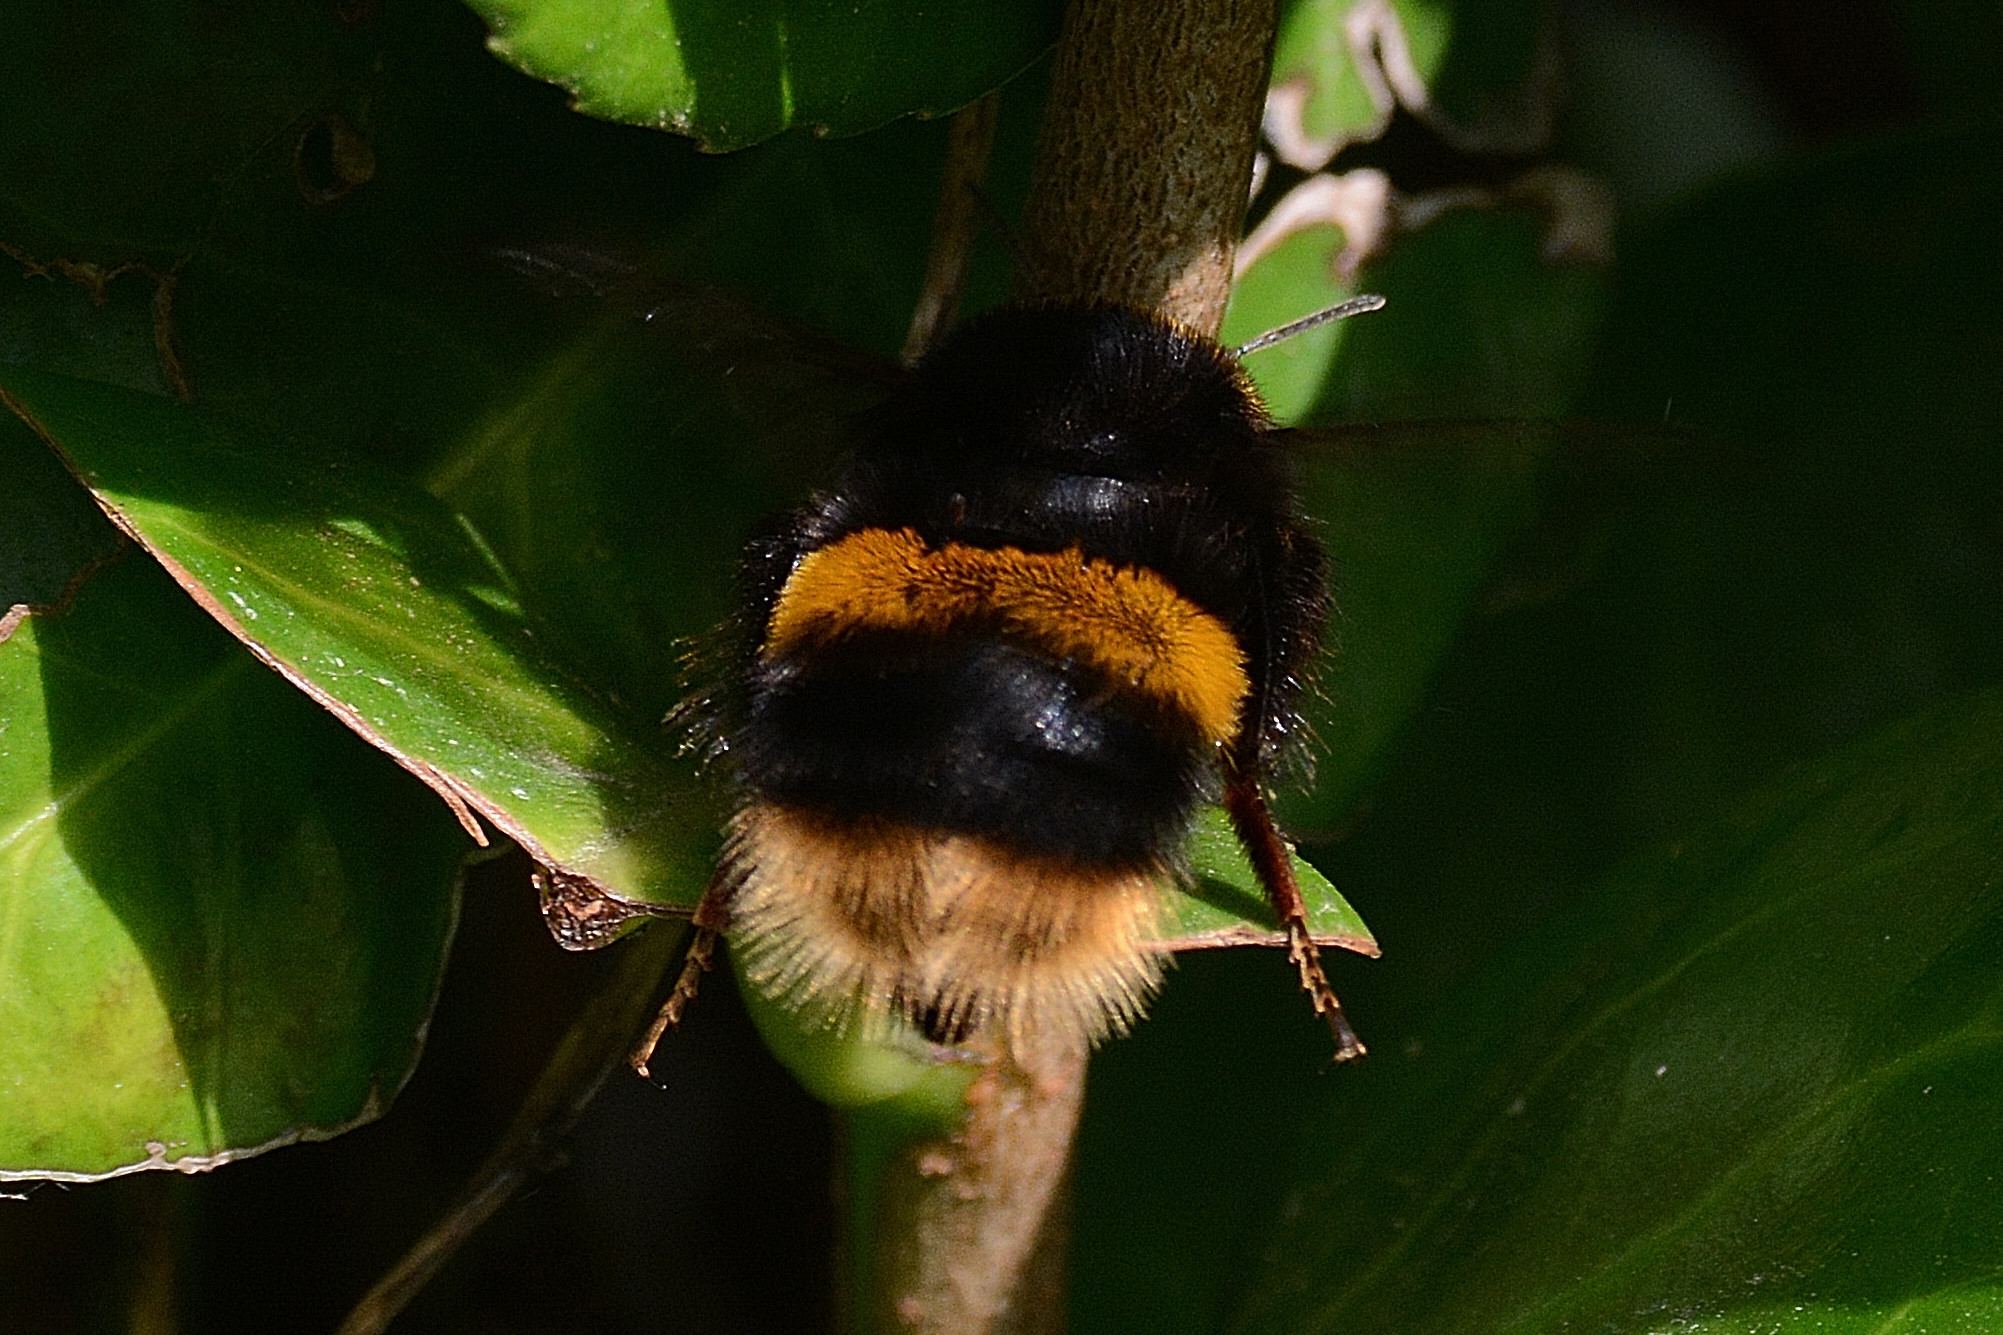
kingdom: Animalia
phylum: Arthropoda
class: Insecta
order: Hymenoptera
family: Apidae
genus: Bombus
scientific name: Bombus terrestris
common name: Buff-tailed bumblebee
